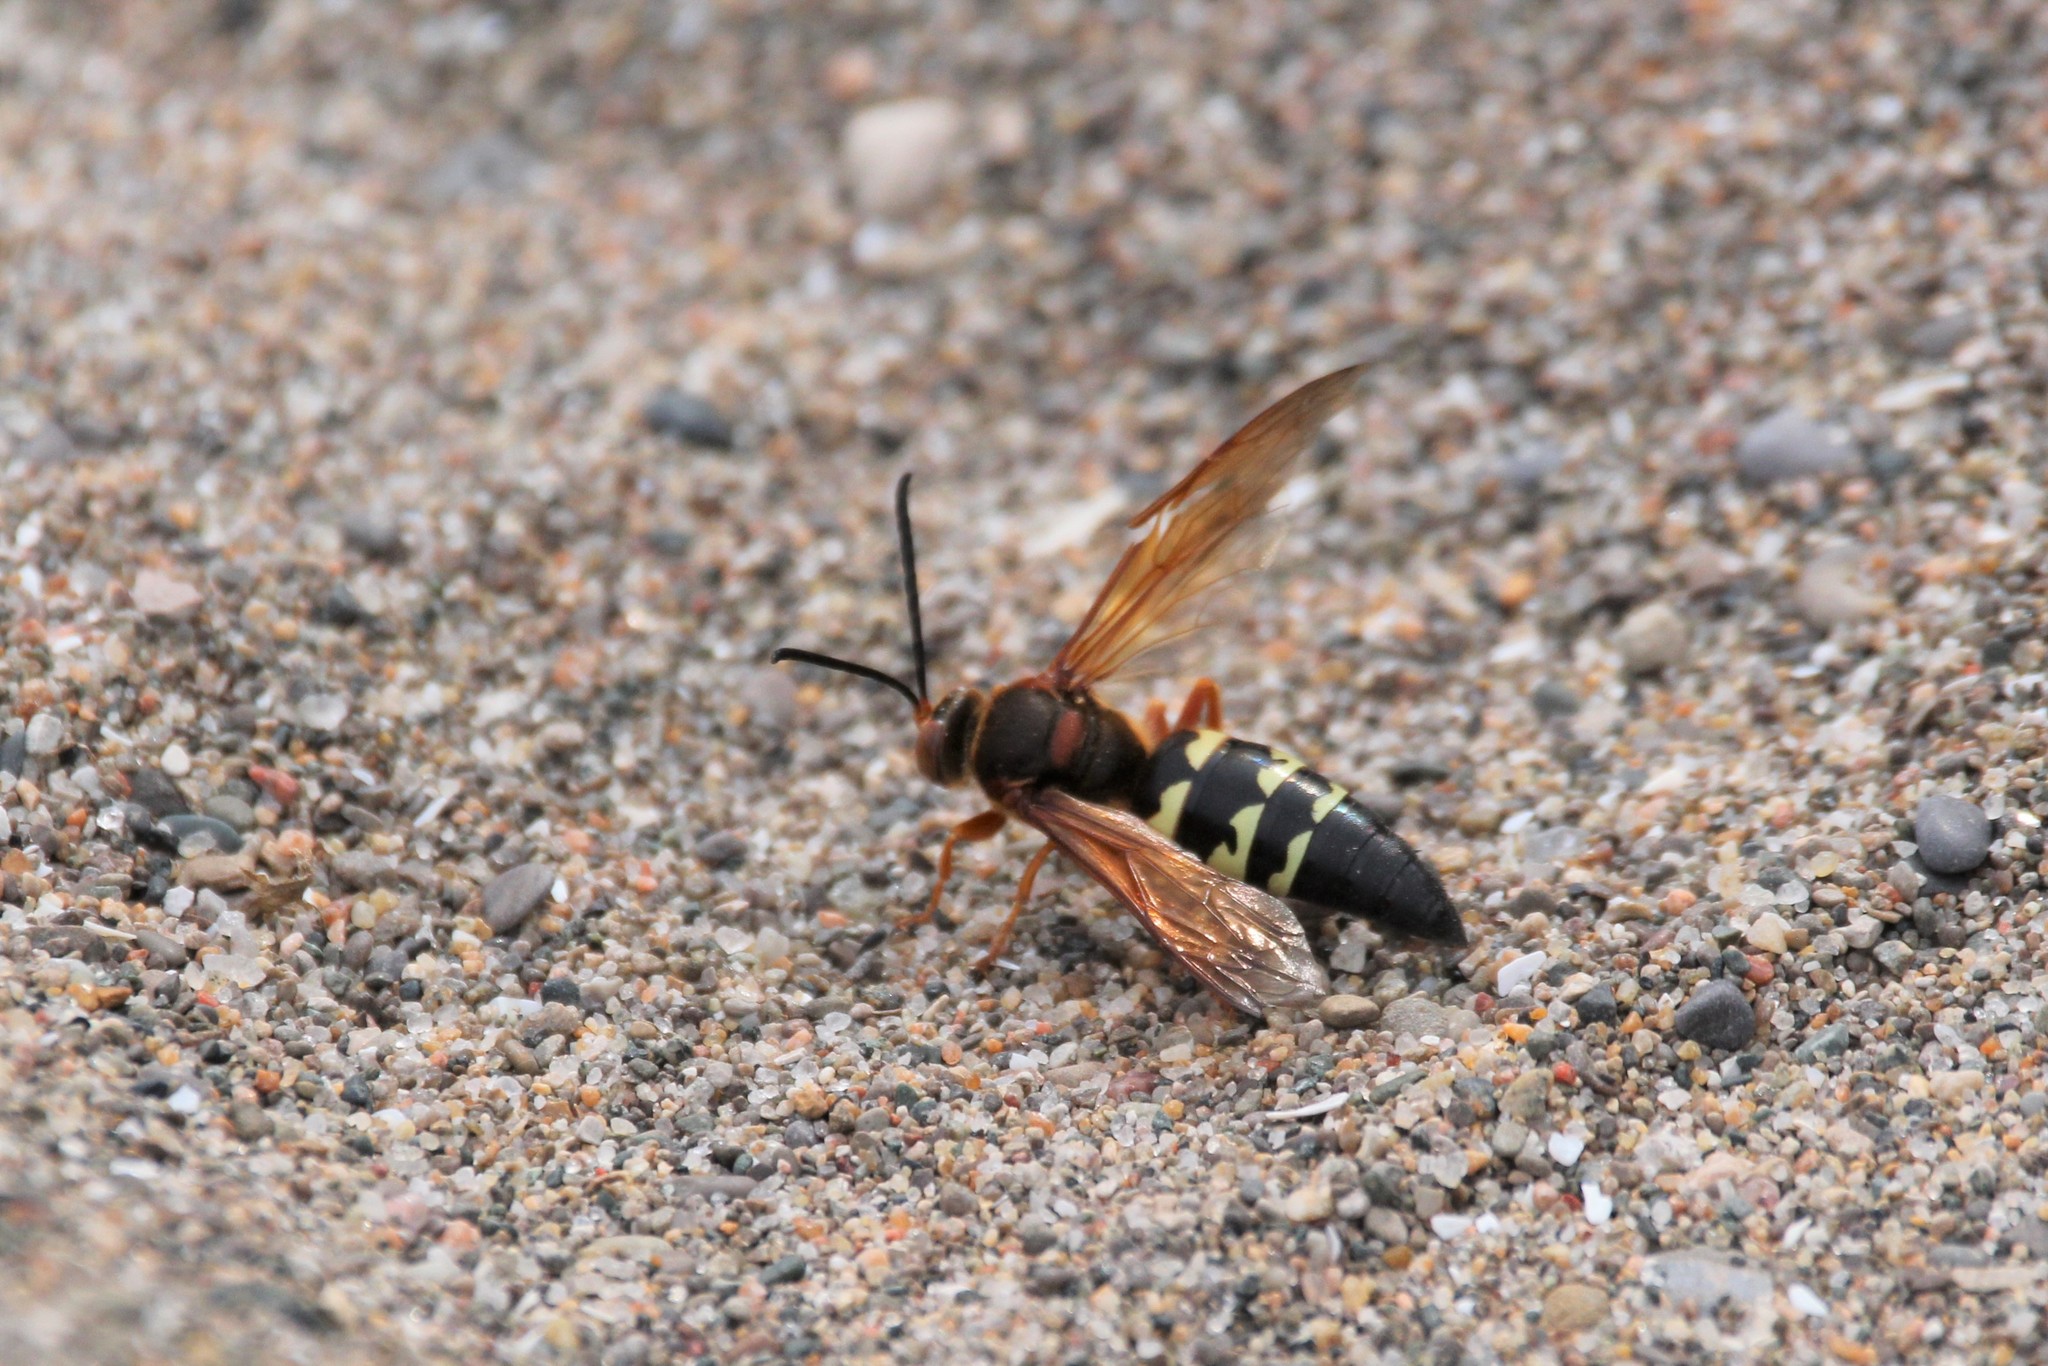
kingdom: Animalia
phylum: Arthropoda
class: Insecta
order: Hymenoptera
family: Crabronidae
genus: Sphecius
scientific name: Sphecius speciosus
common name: Cicada killer
